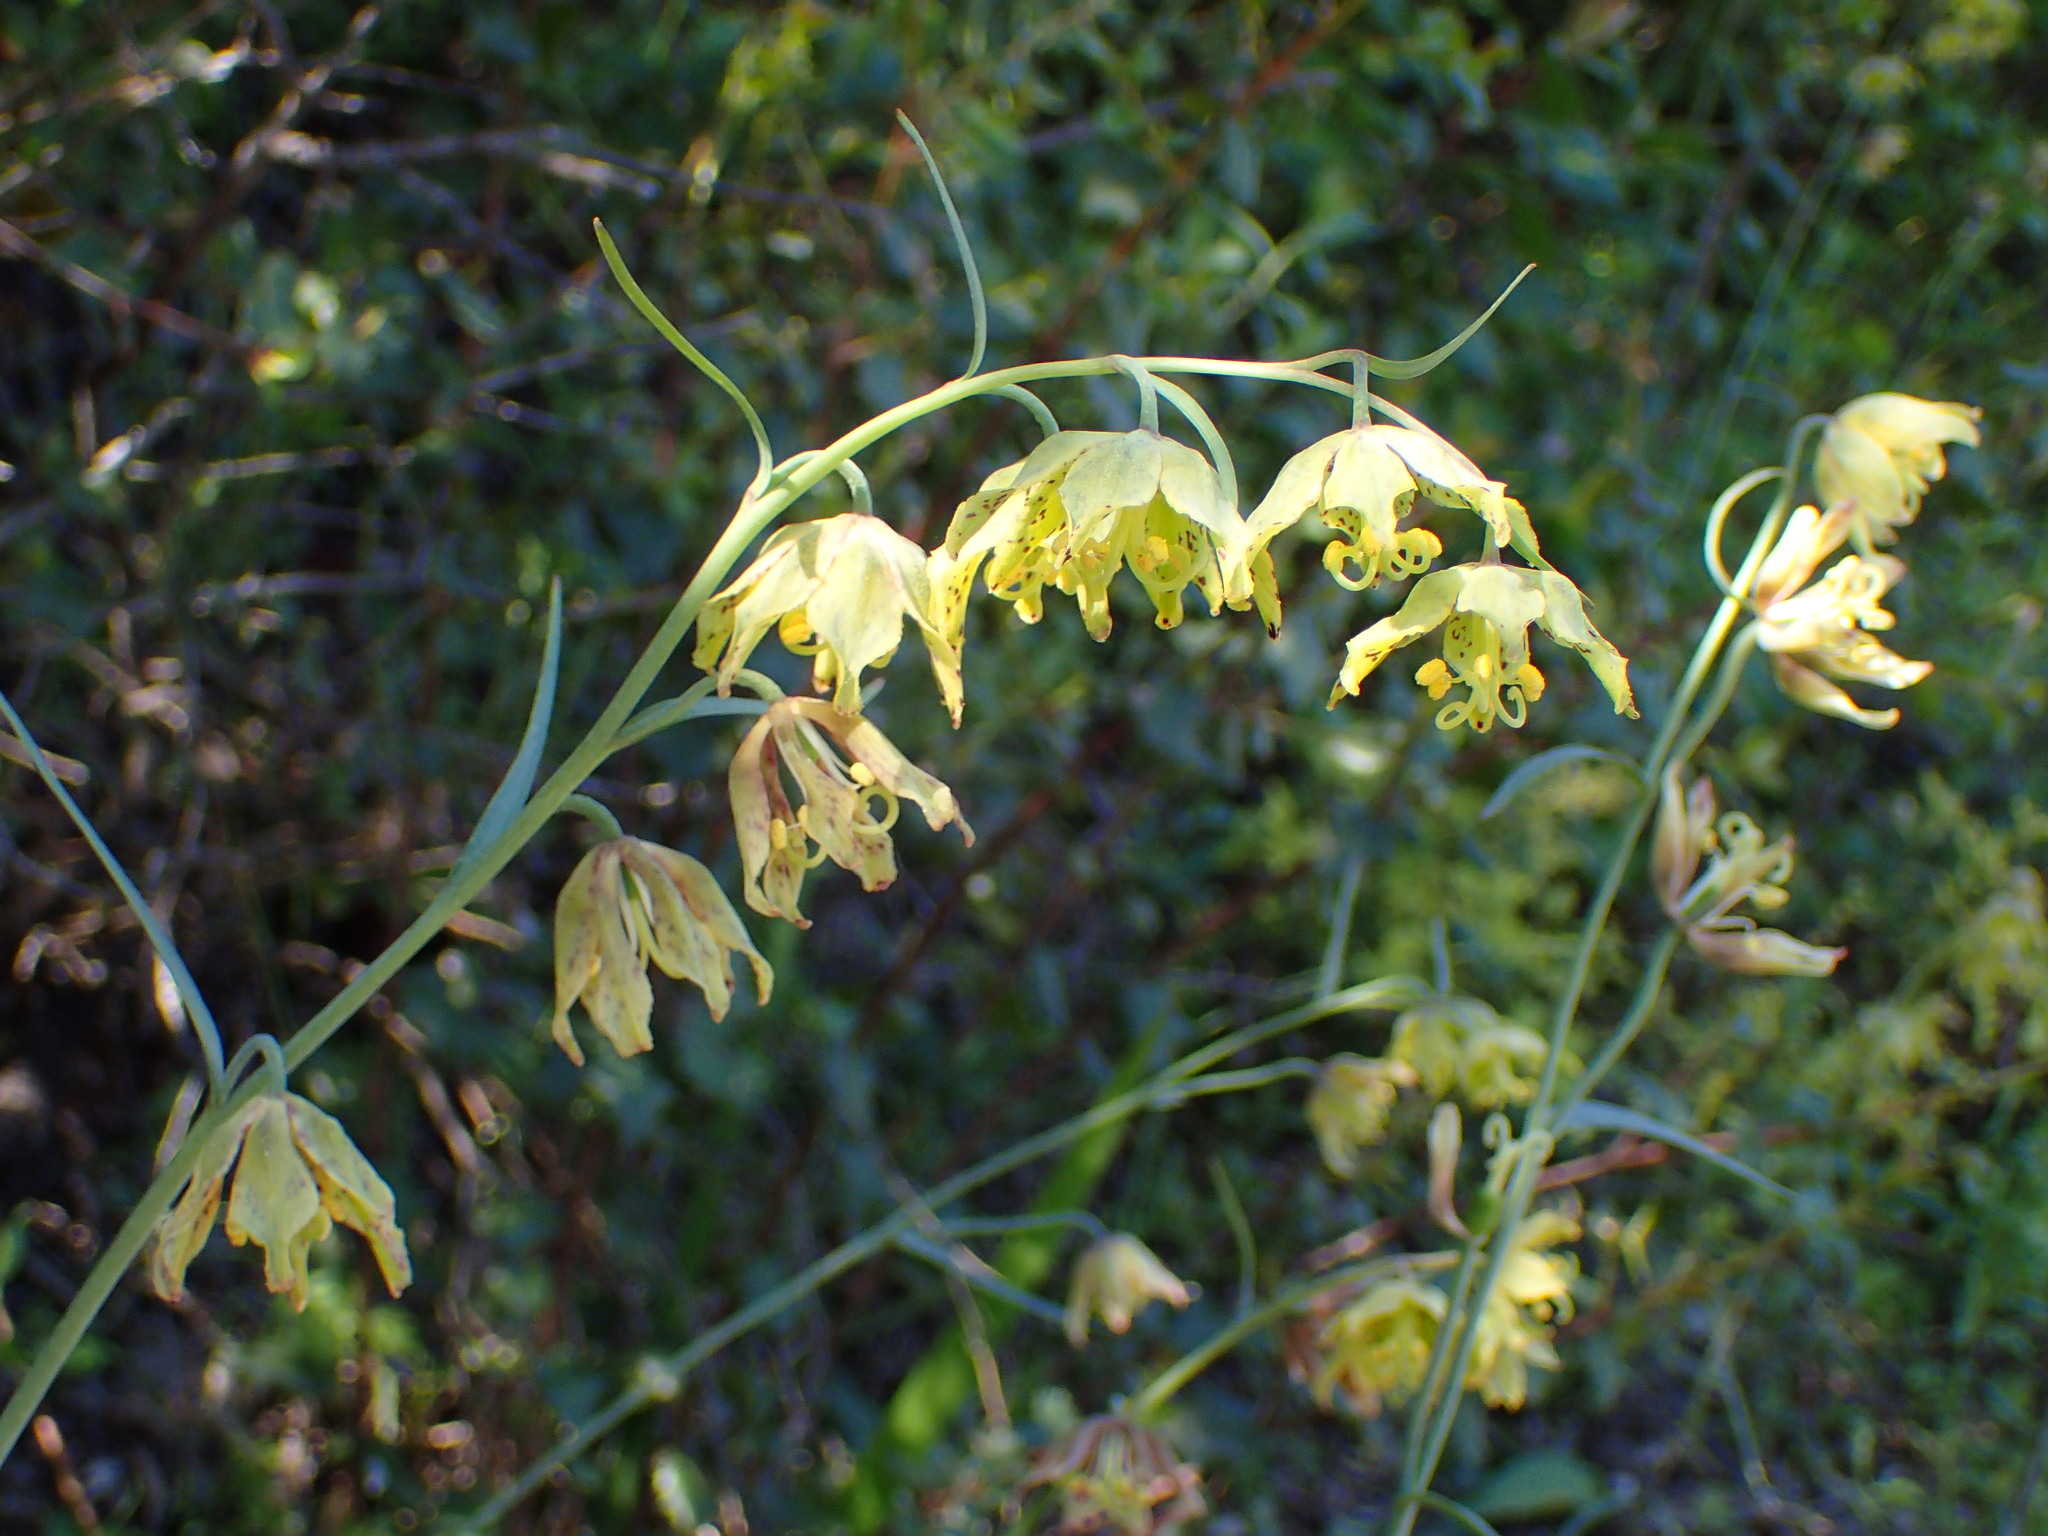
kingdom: Plantae
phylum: Tracheophyta
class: Liliopsida
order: Liliales
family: Liliaceae
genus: Fritillaria
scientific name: Fritillaria ojaiensis
